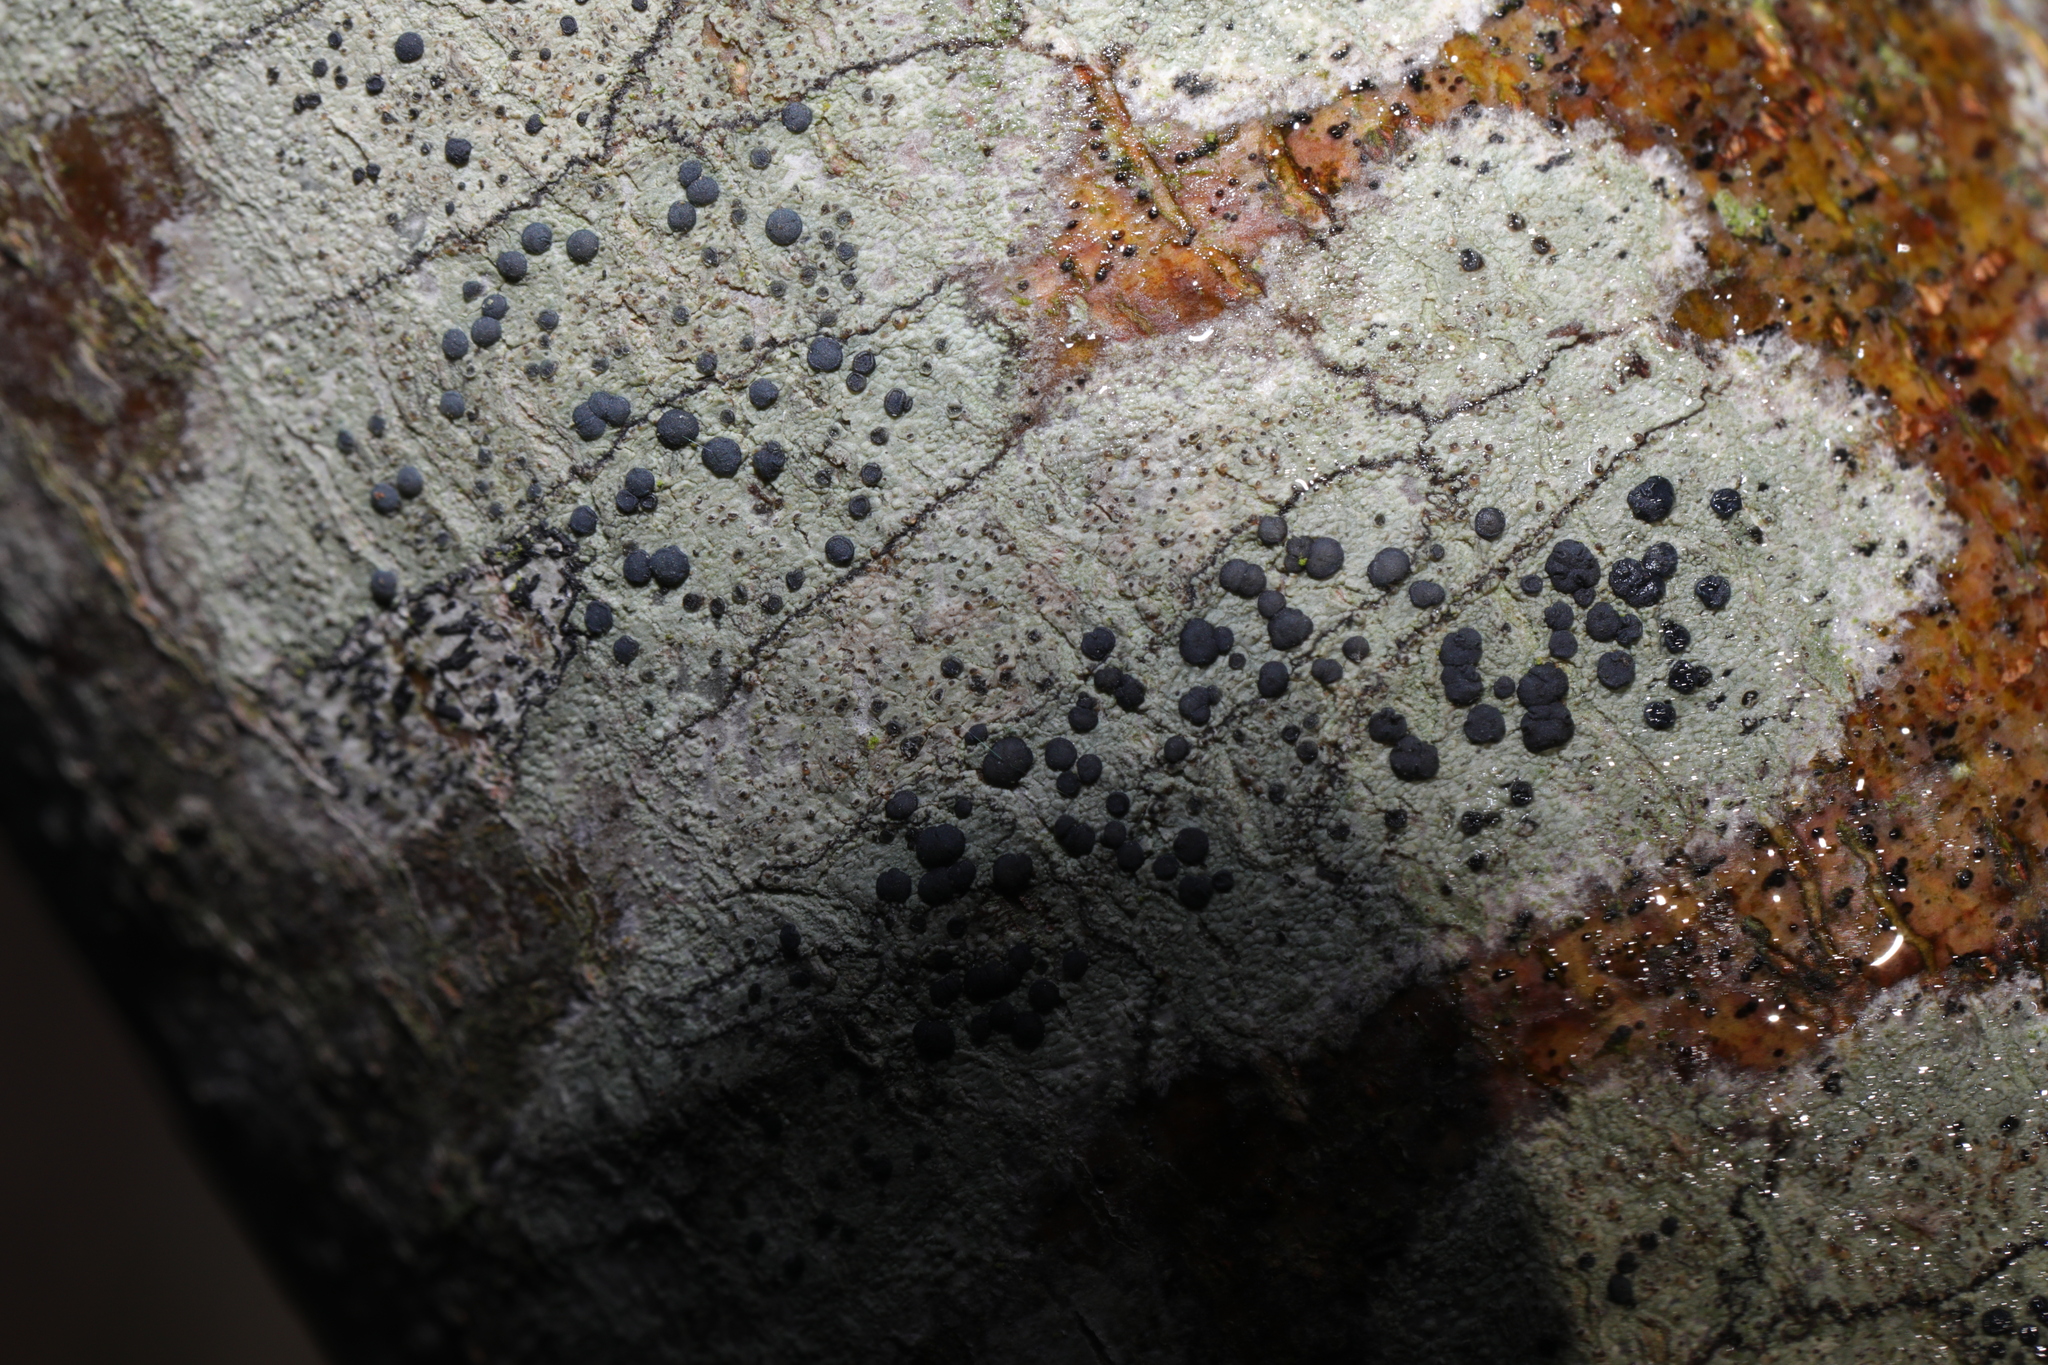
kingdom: Fungi
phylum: Ascomycota
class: Lecanoromycetes
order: Lecanorales
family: Lecanoraceae
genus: Lecidella
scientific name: Lecidella elaeochroma
